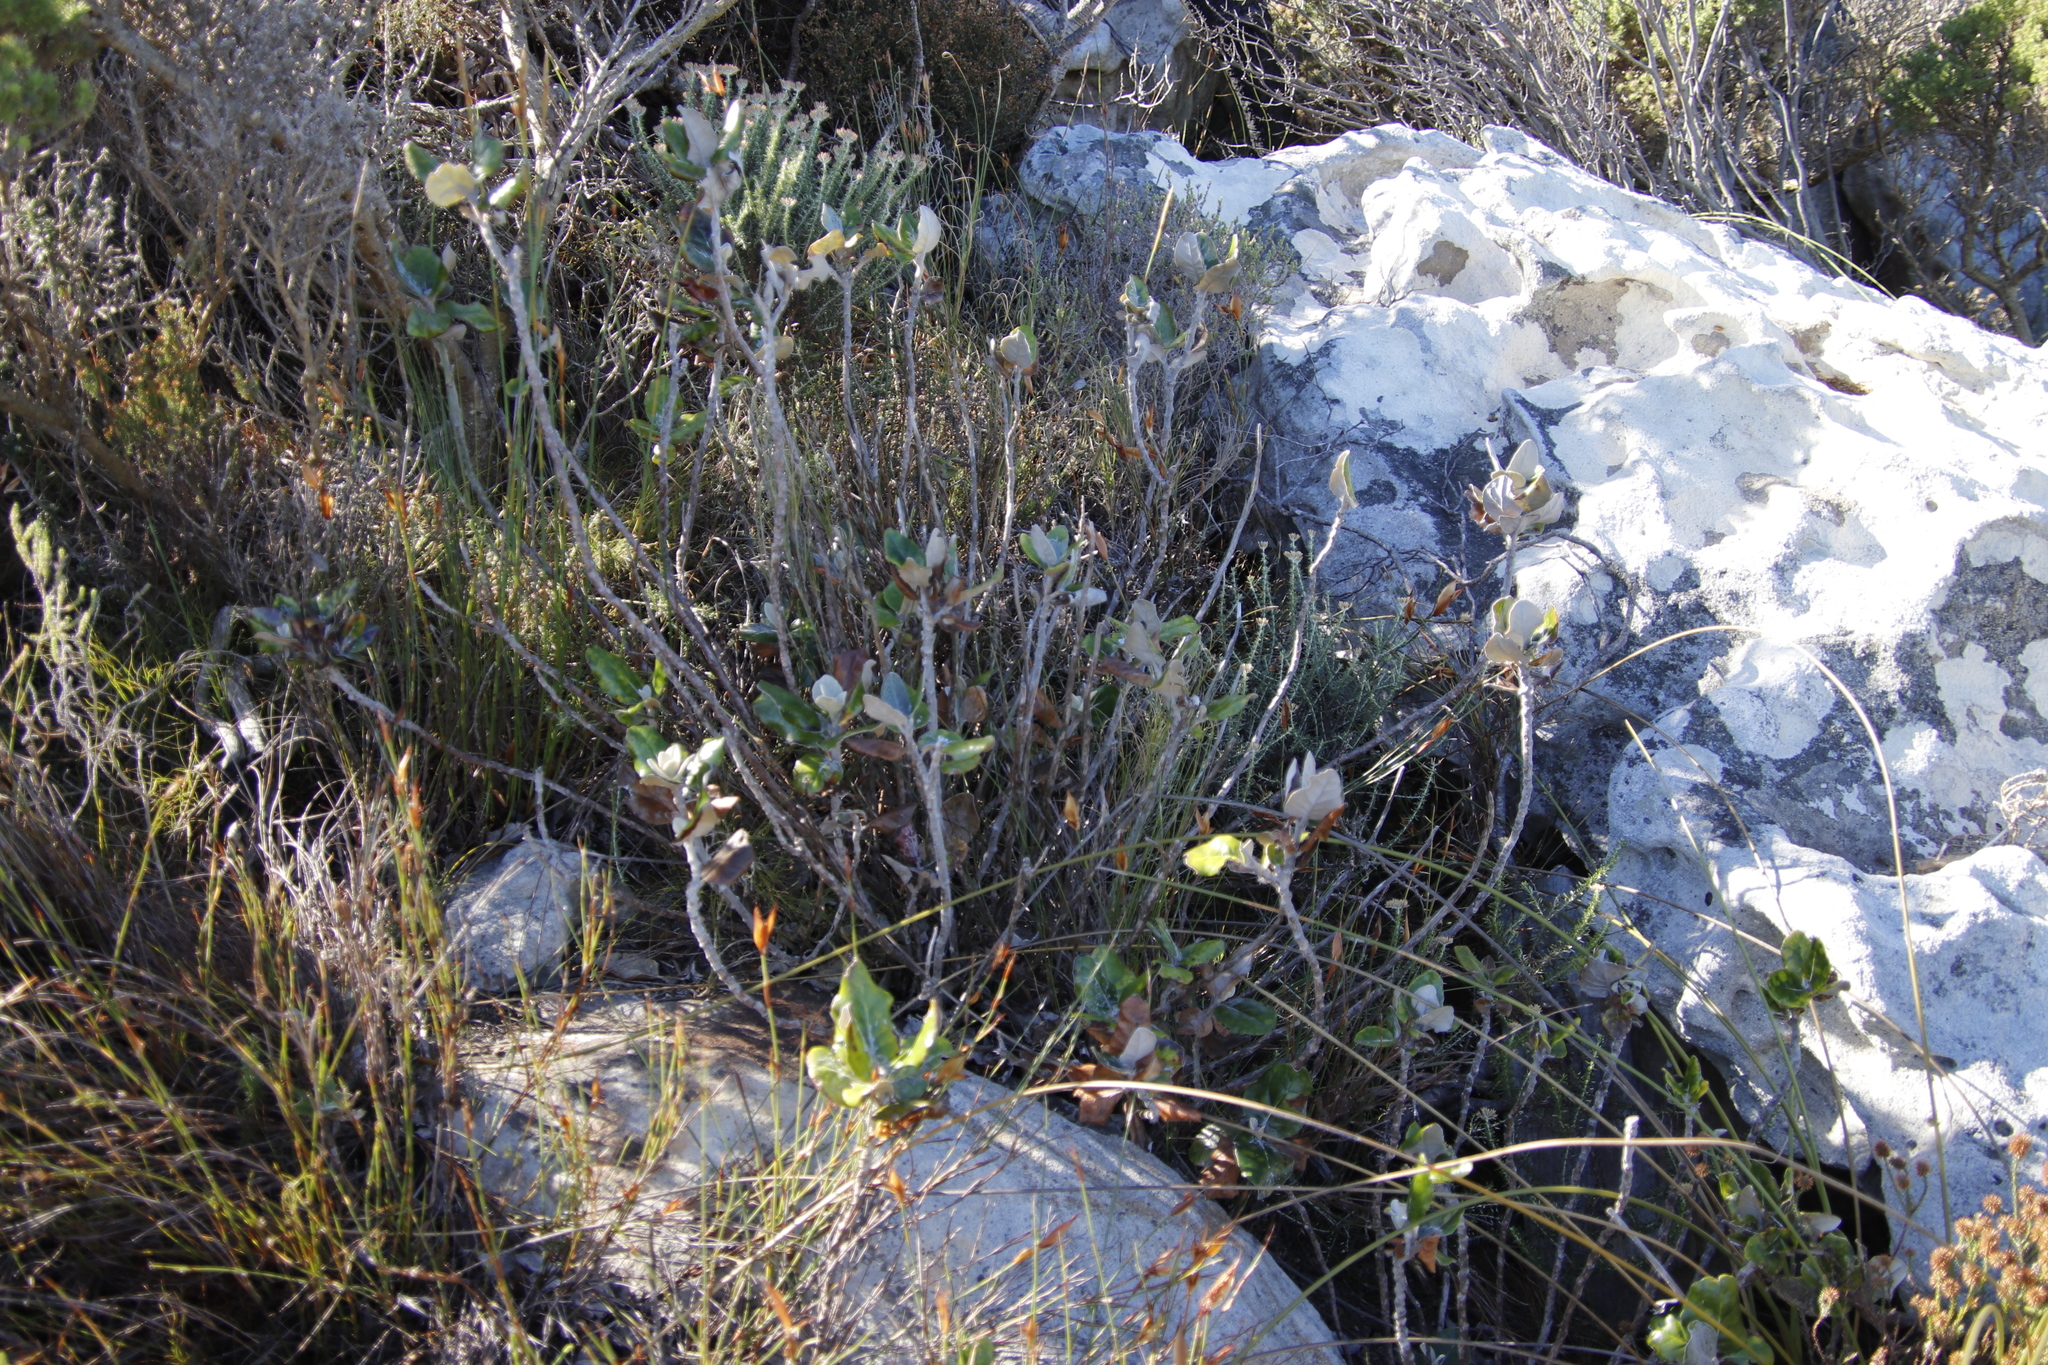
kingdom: Plantae
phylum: Tracheophyta
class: Magnoliopsida
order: Asterales
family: Asteraceae
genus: Capelio
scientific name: Capelio tabularis
